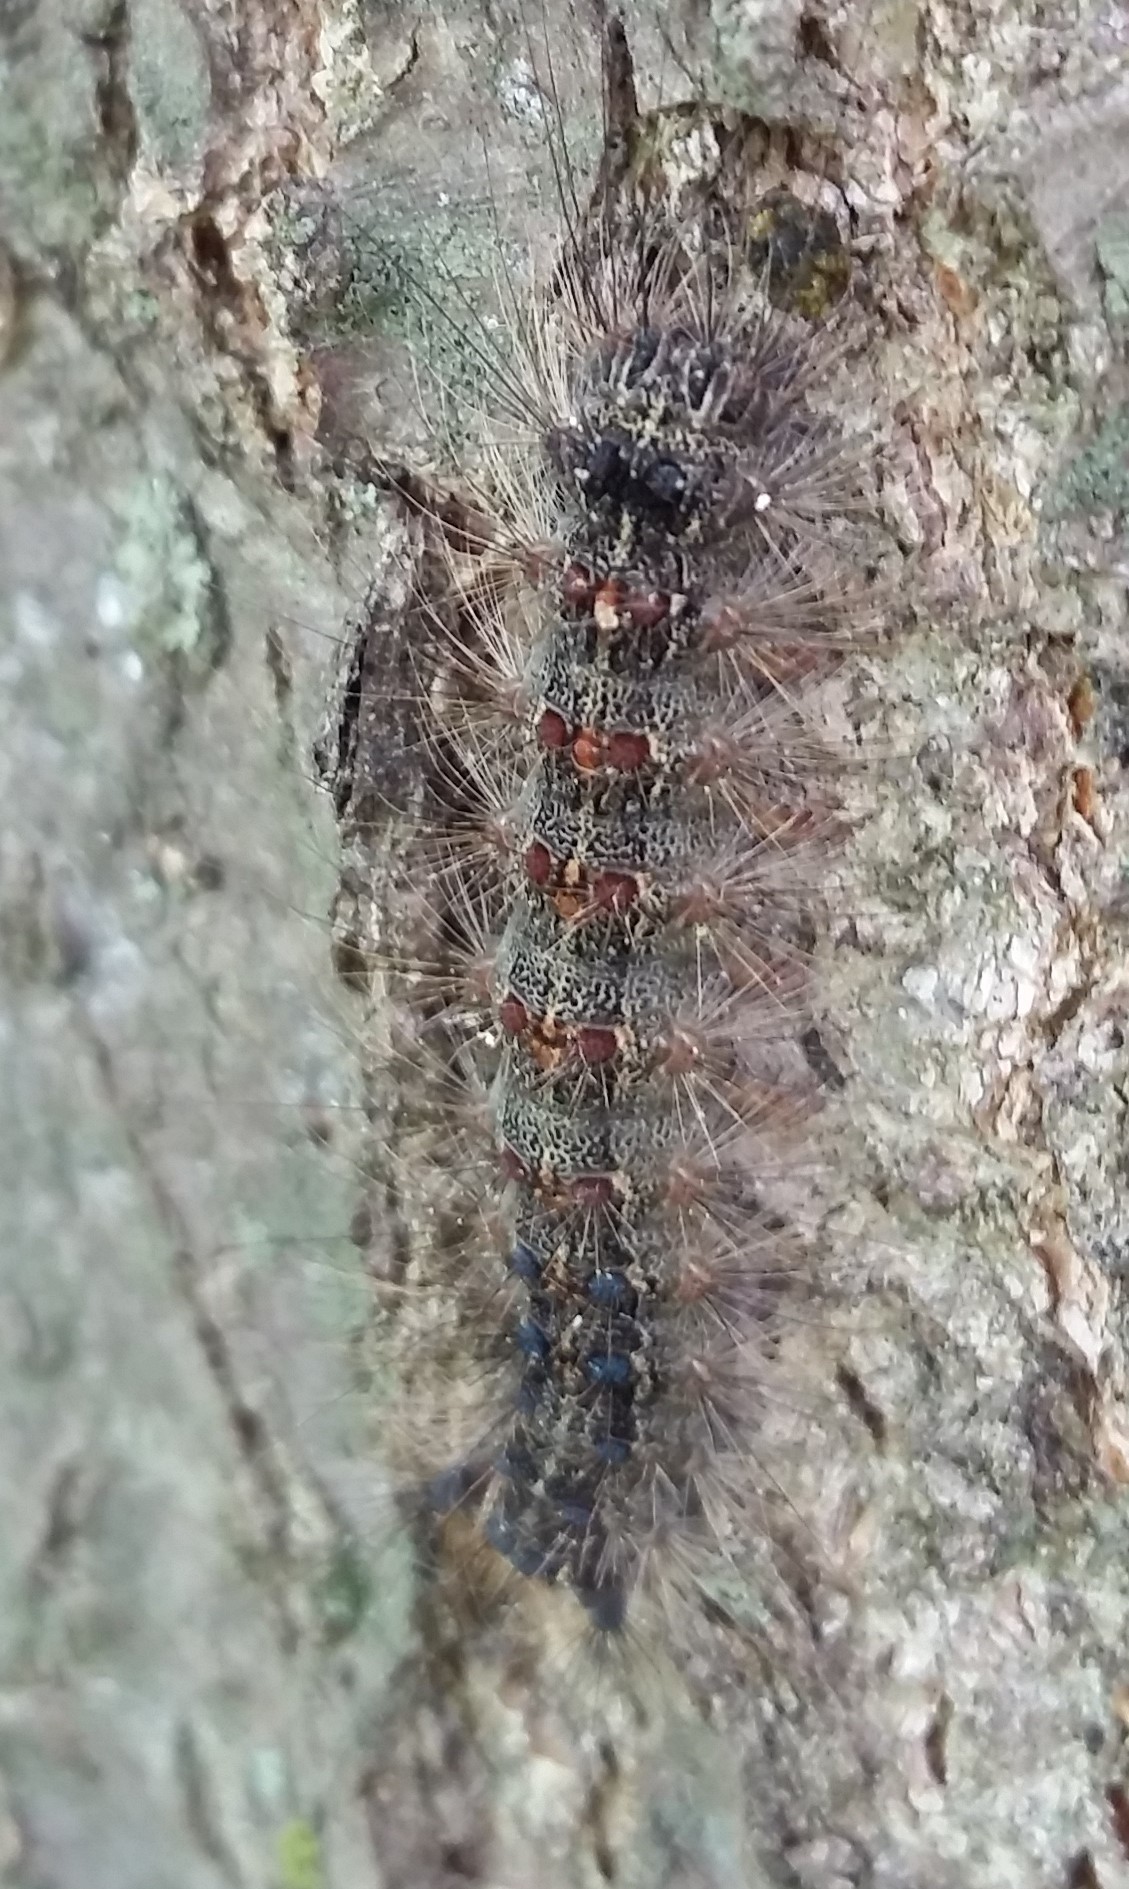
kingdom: Animalia
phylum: Arthropoda
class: Insecta
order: Lepidoptera
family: Erebidae
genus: Lymantria
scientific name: Lymantria dispar
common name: Gypsy moth
